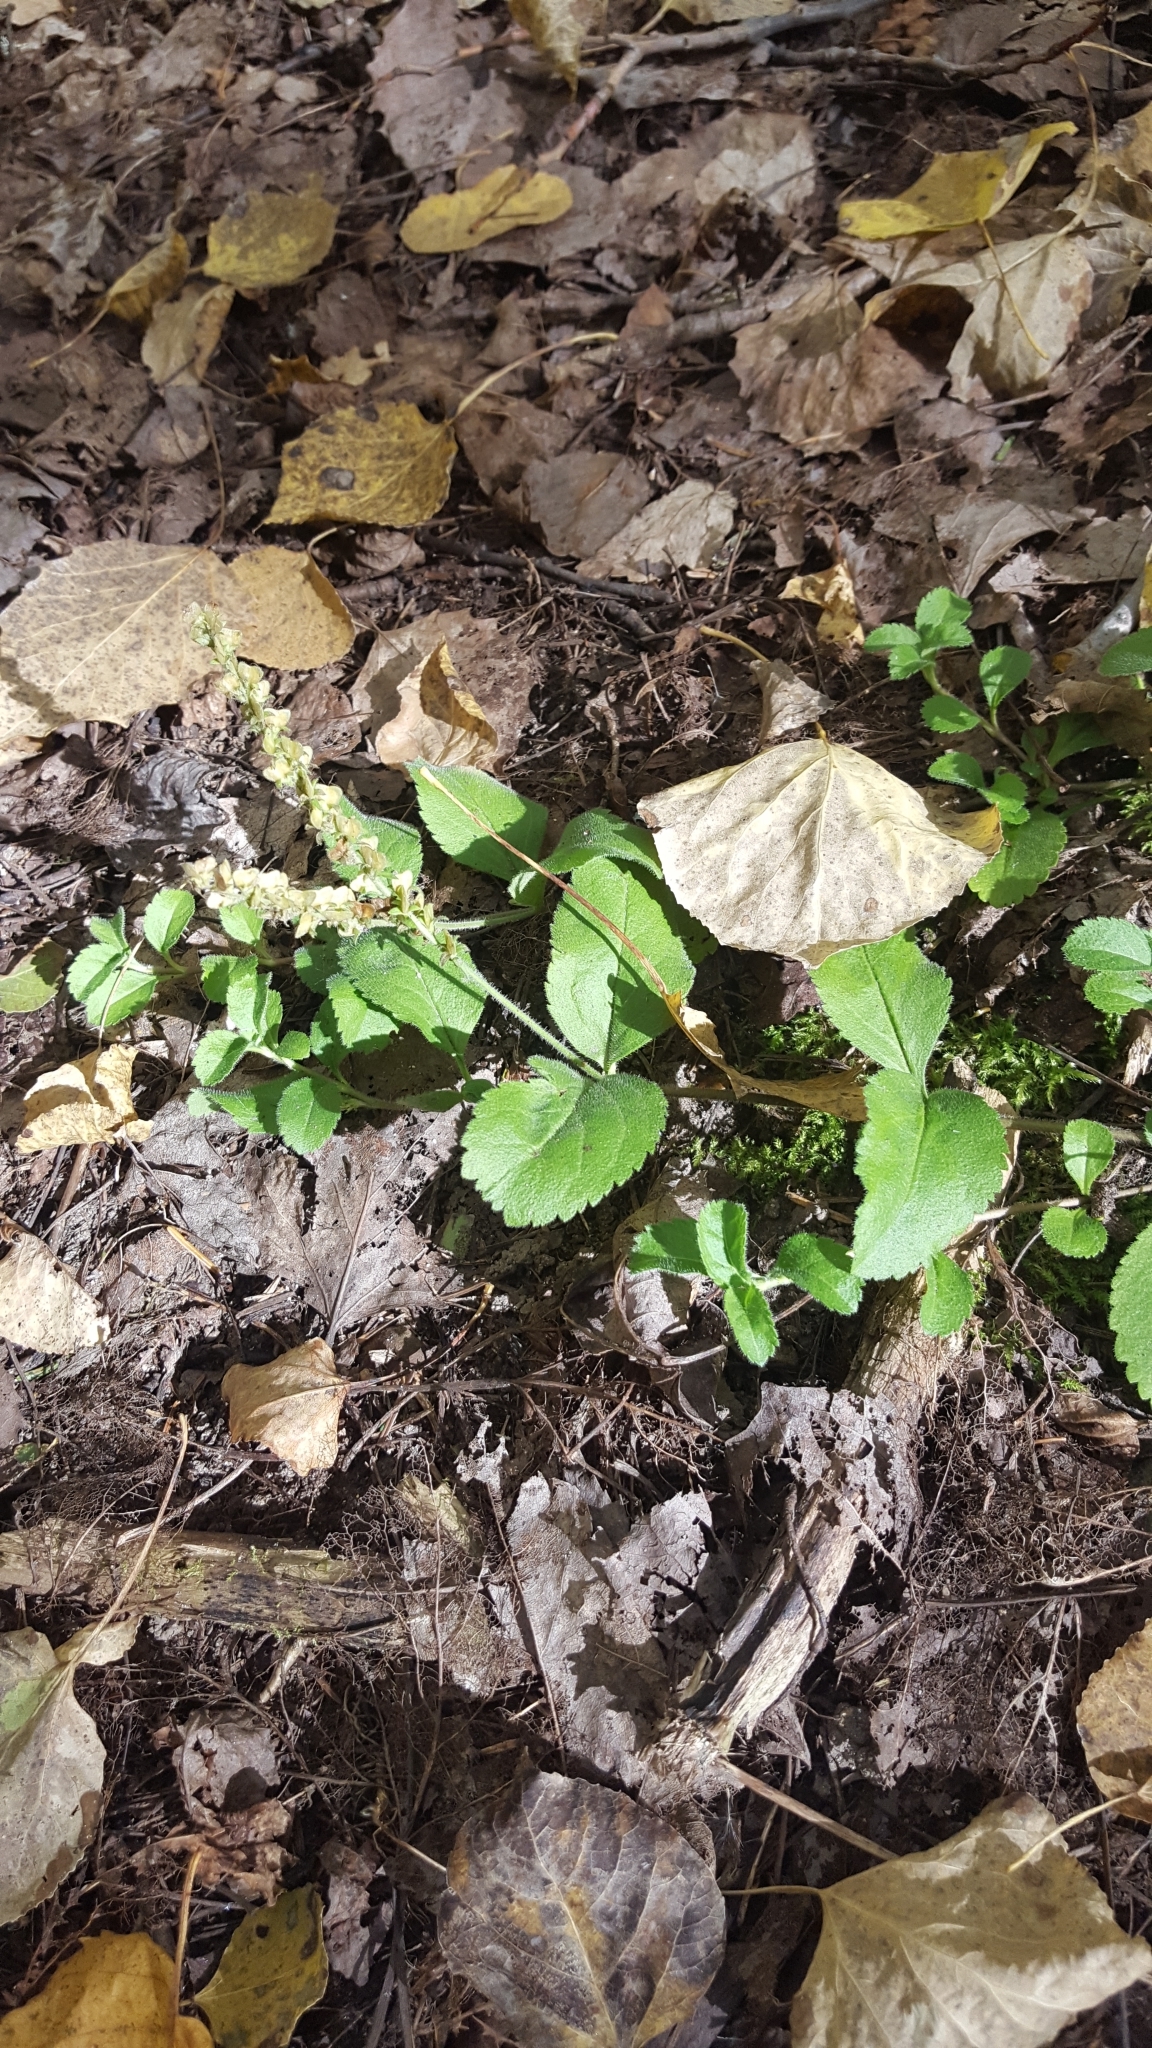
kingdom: Plantae
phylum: Tracheophyta
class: Magnoliopsida
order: Lamiales
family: Plantaginaceae
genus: Veronica
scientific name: Veronica officinalis
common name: Common speedwell
